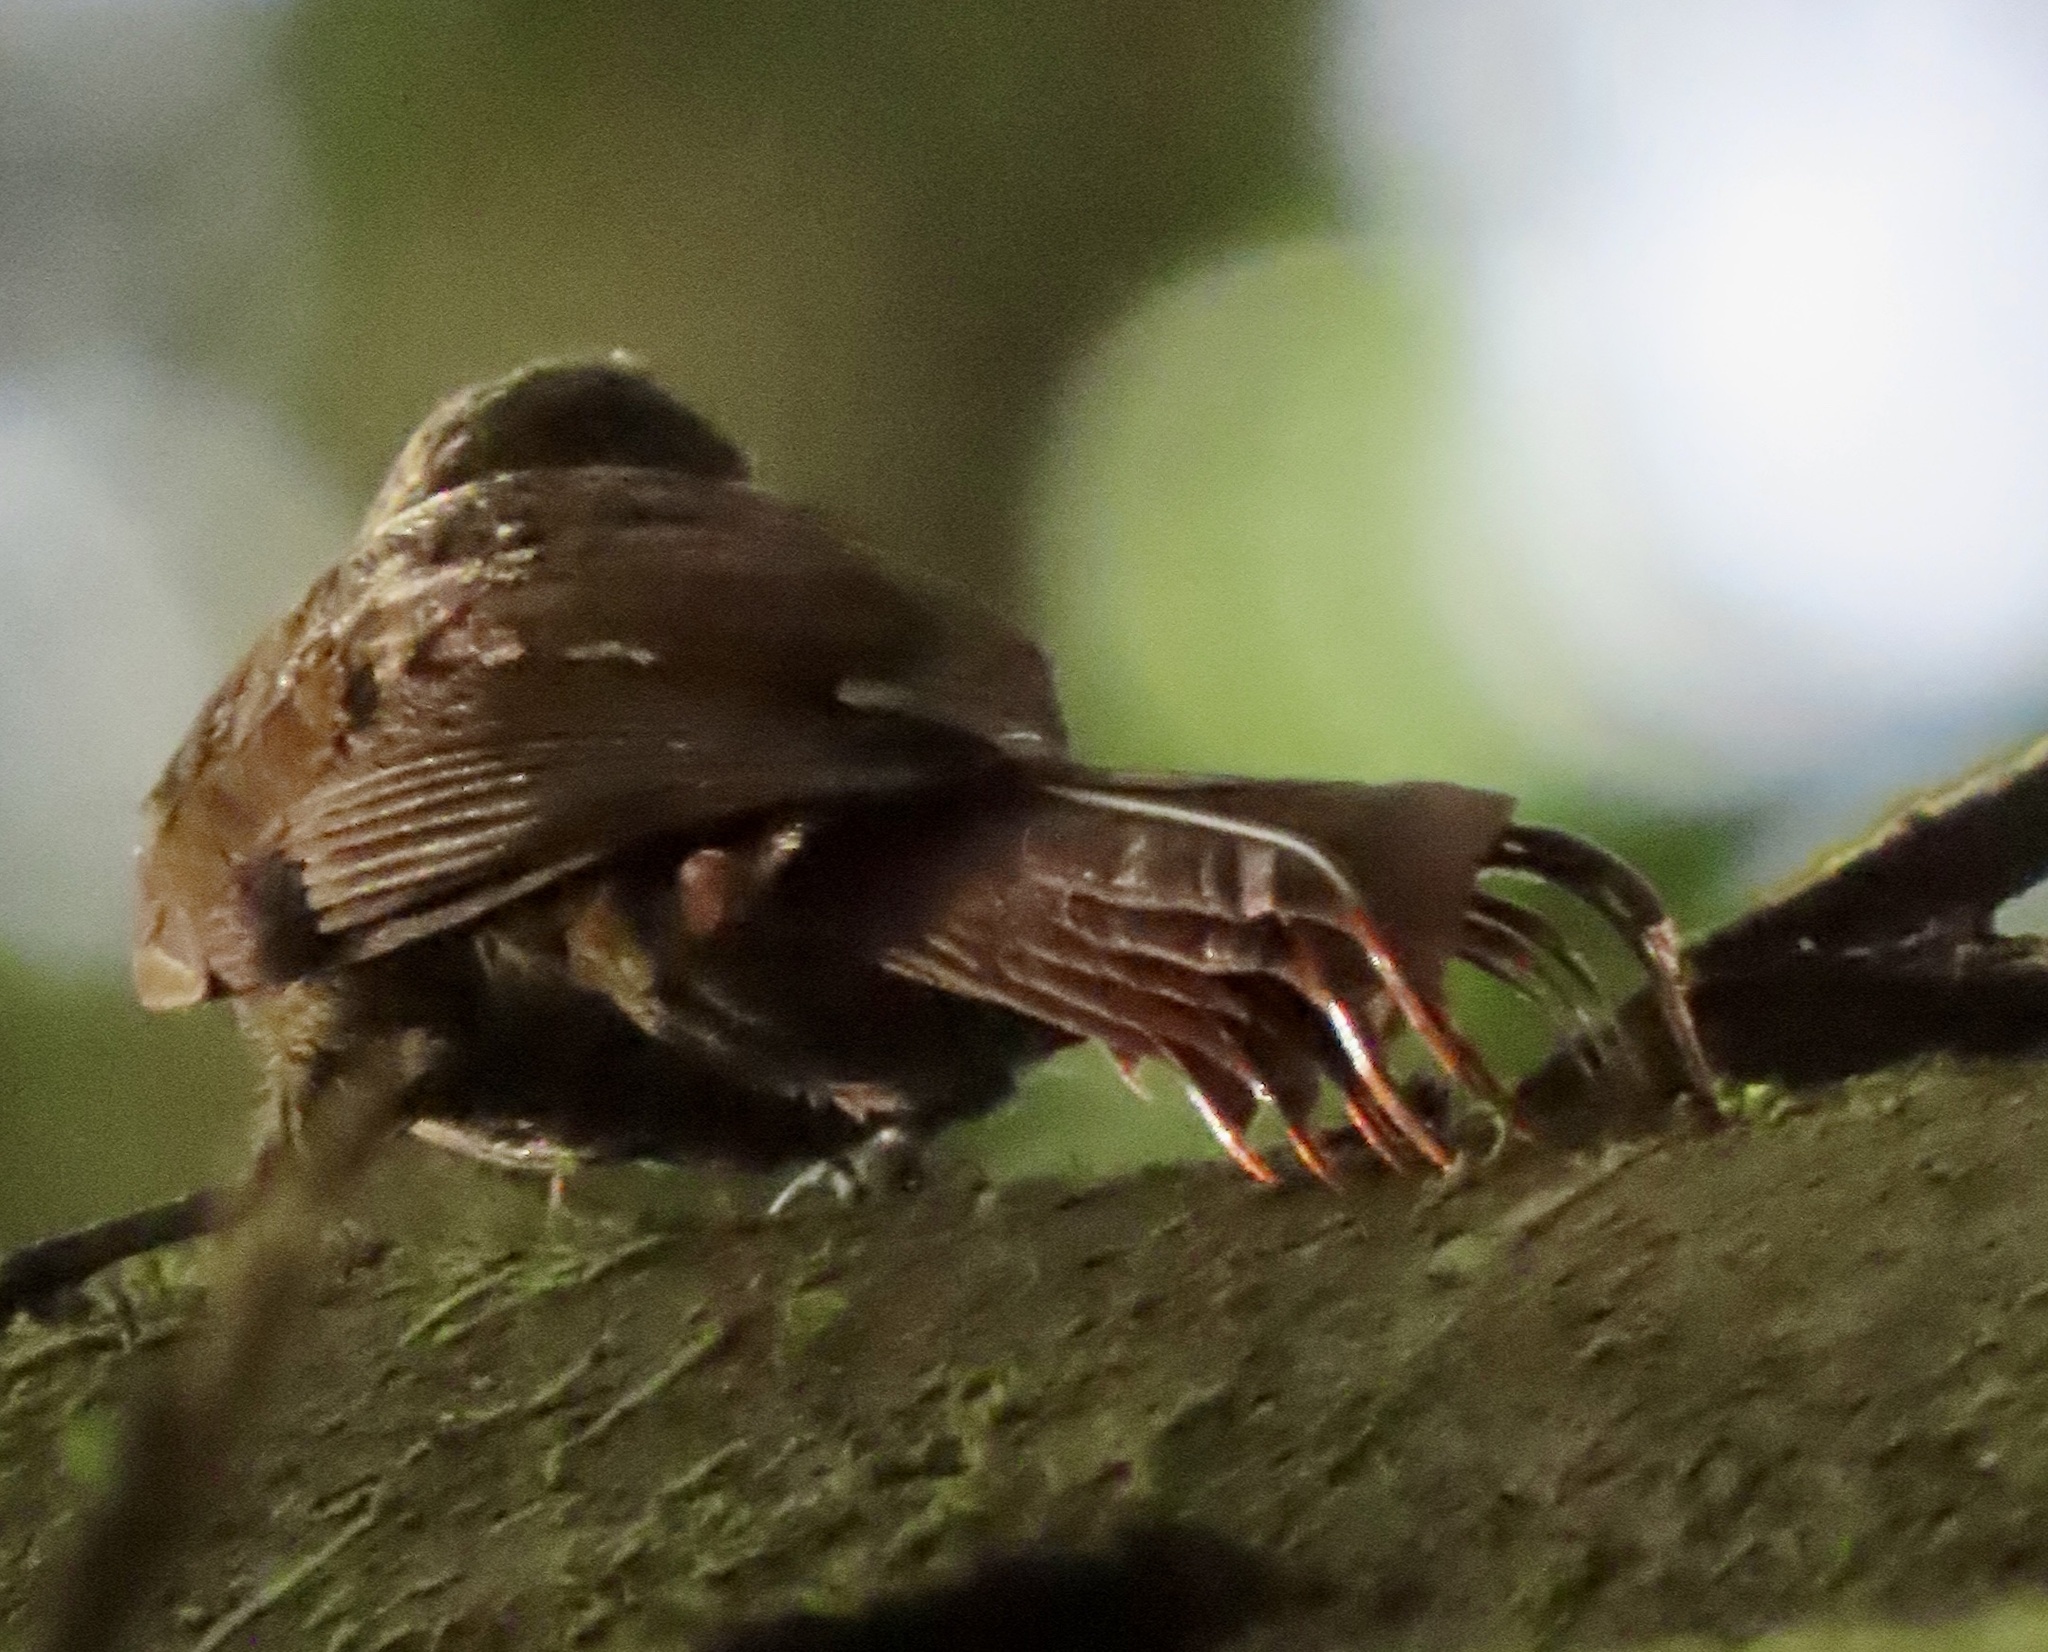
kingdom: Animalia
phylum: Chordata
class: Aves
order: Passeriformes
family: Furnariidae
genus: Glyphorynchus
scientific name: Glyphorynchus spirurus
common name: Wedge-billed woodcreeper
